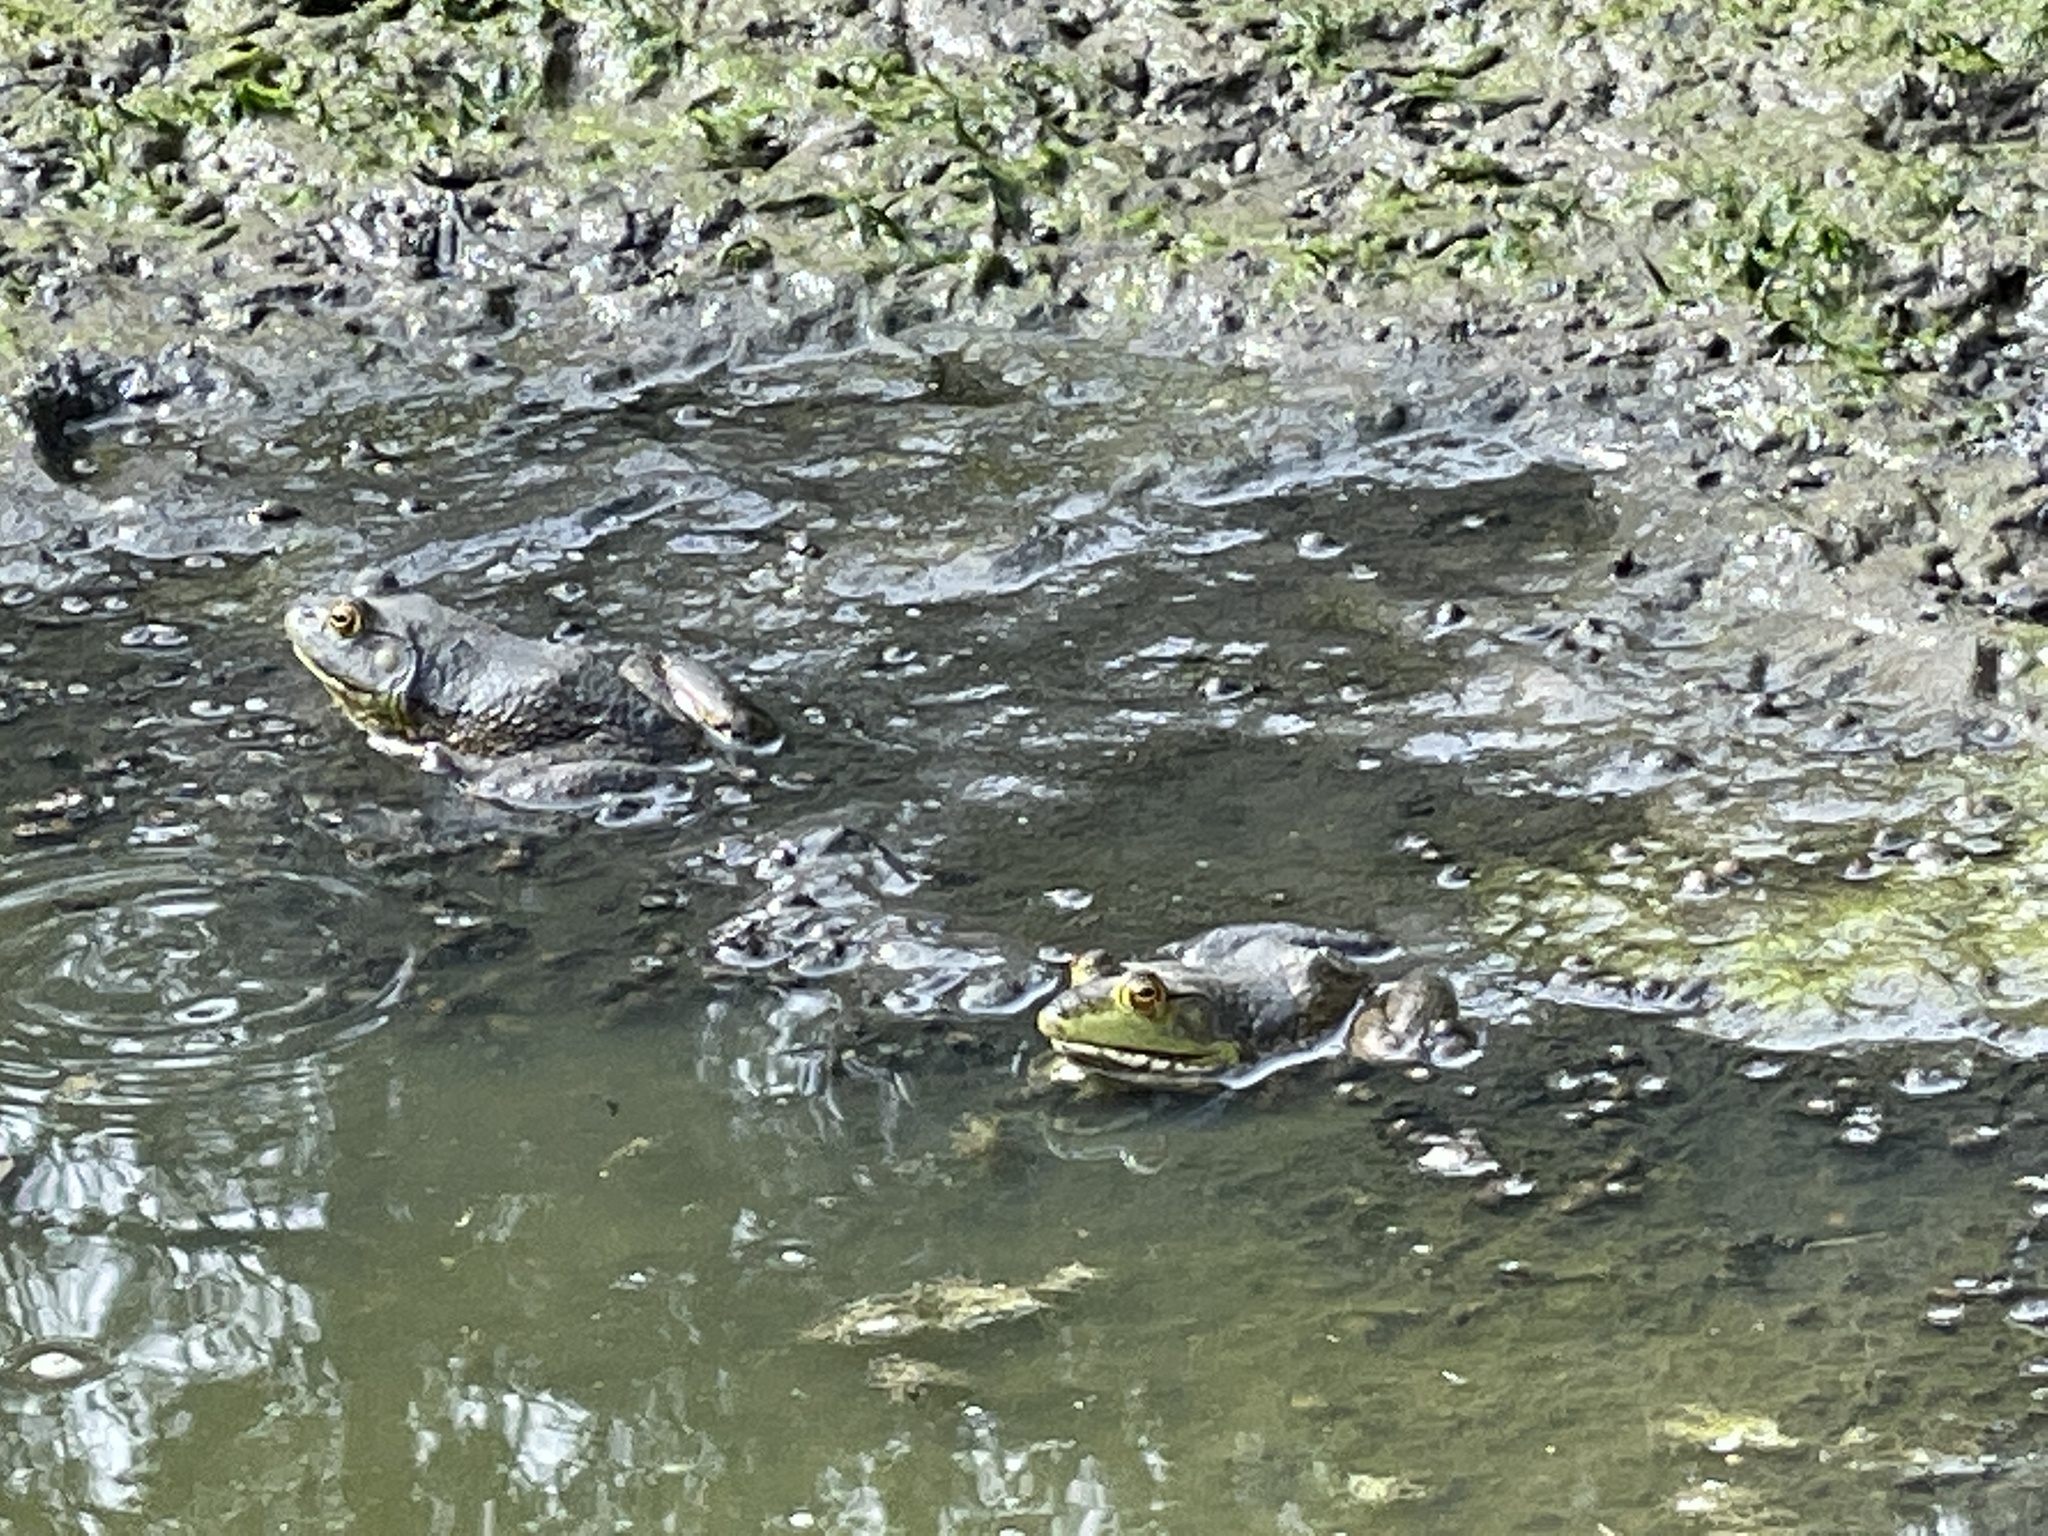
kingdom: Animalia
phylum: Chordata
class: Amphibia
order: Anura
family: Ranidae
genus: Lithobates
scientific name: Lithobates catesbeianus
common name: American bullfrog
